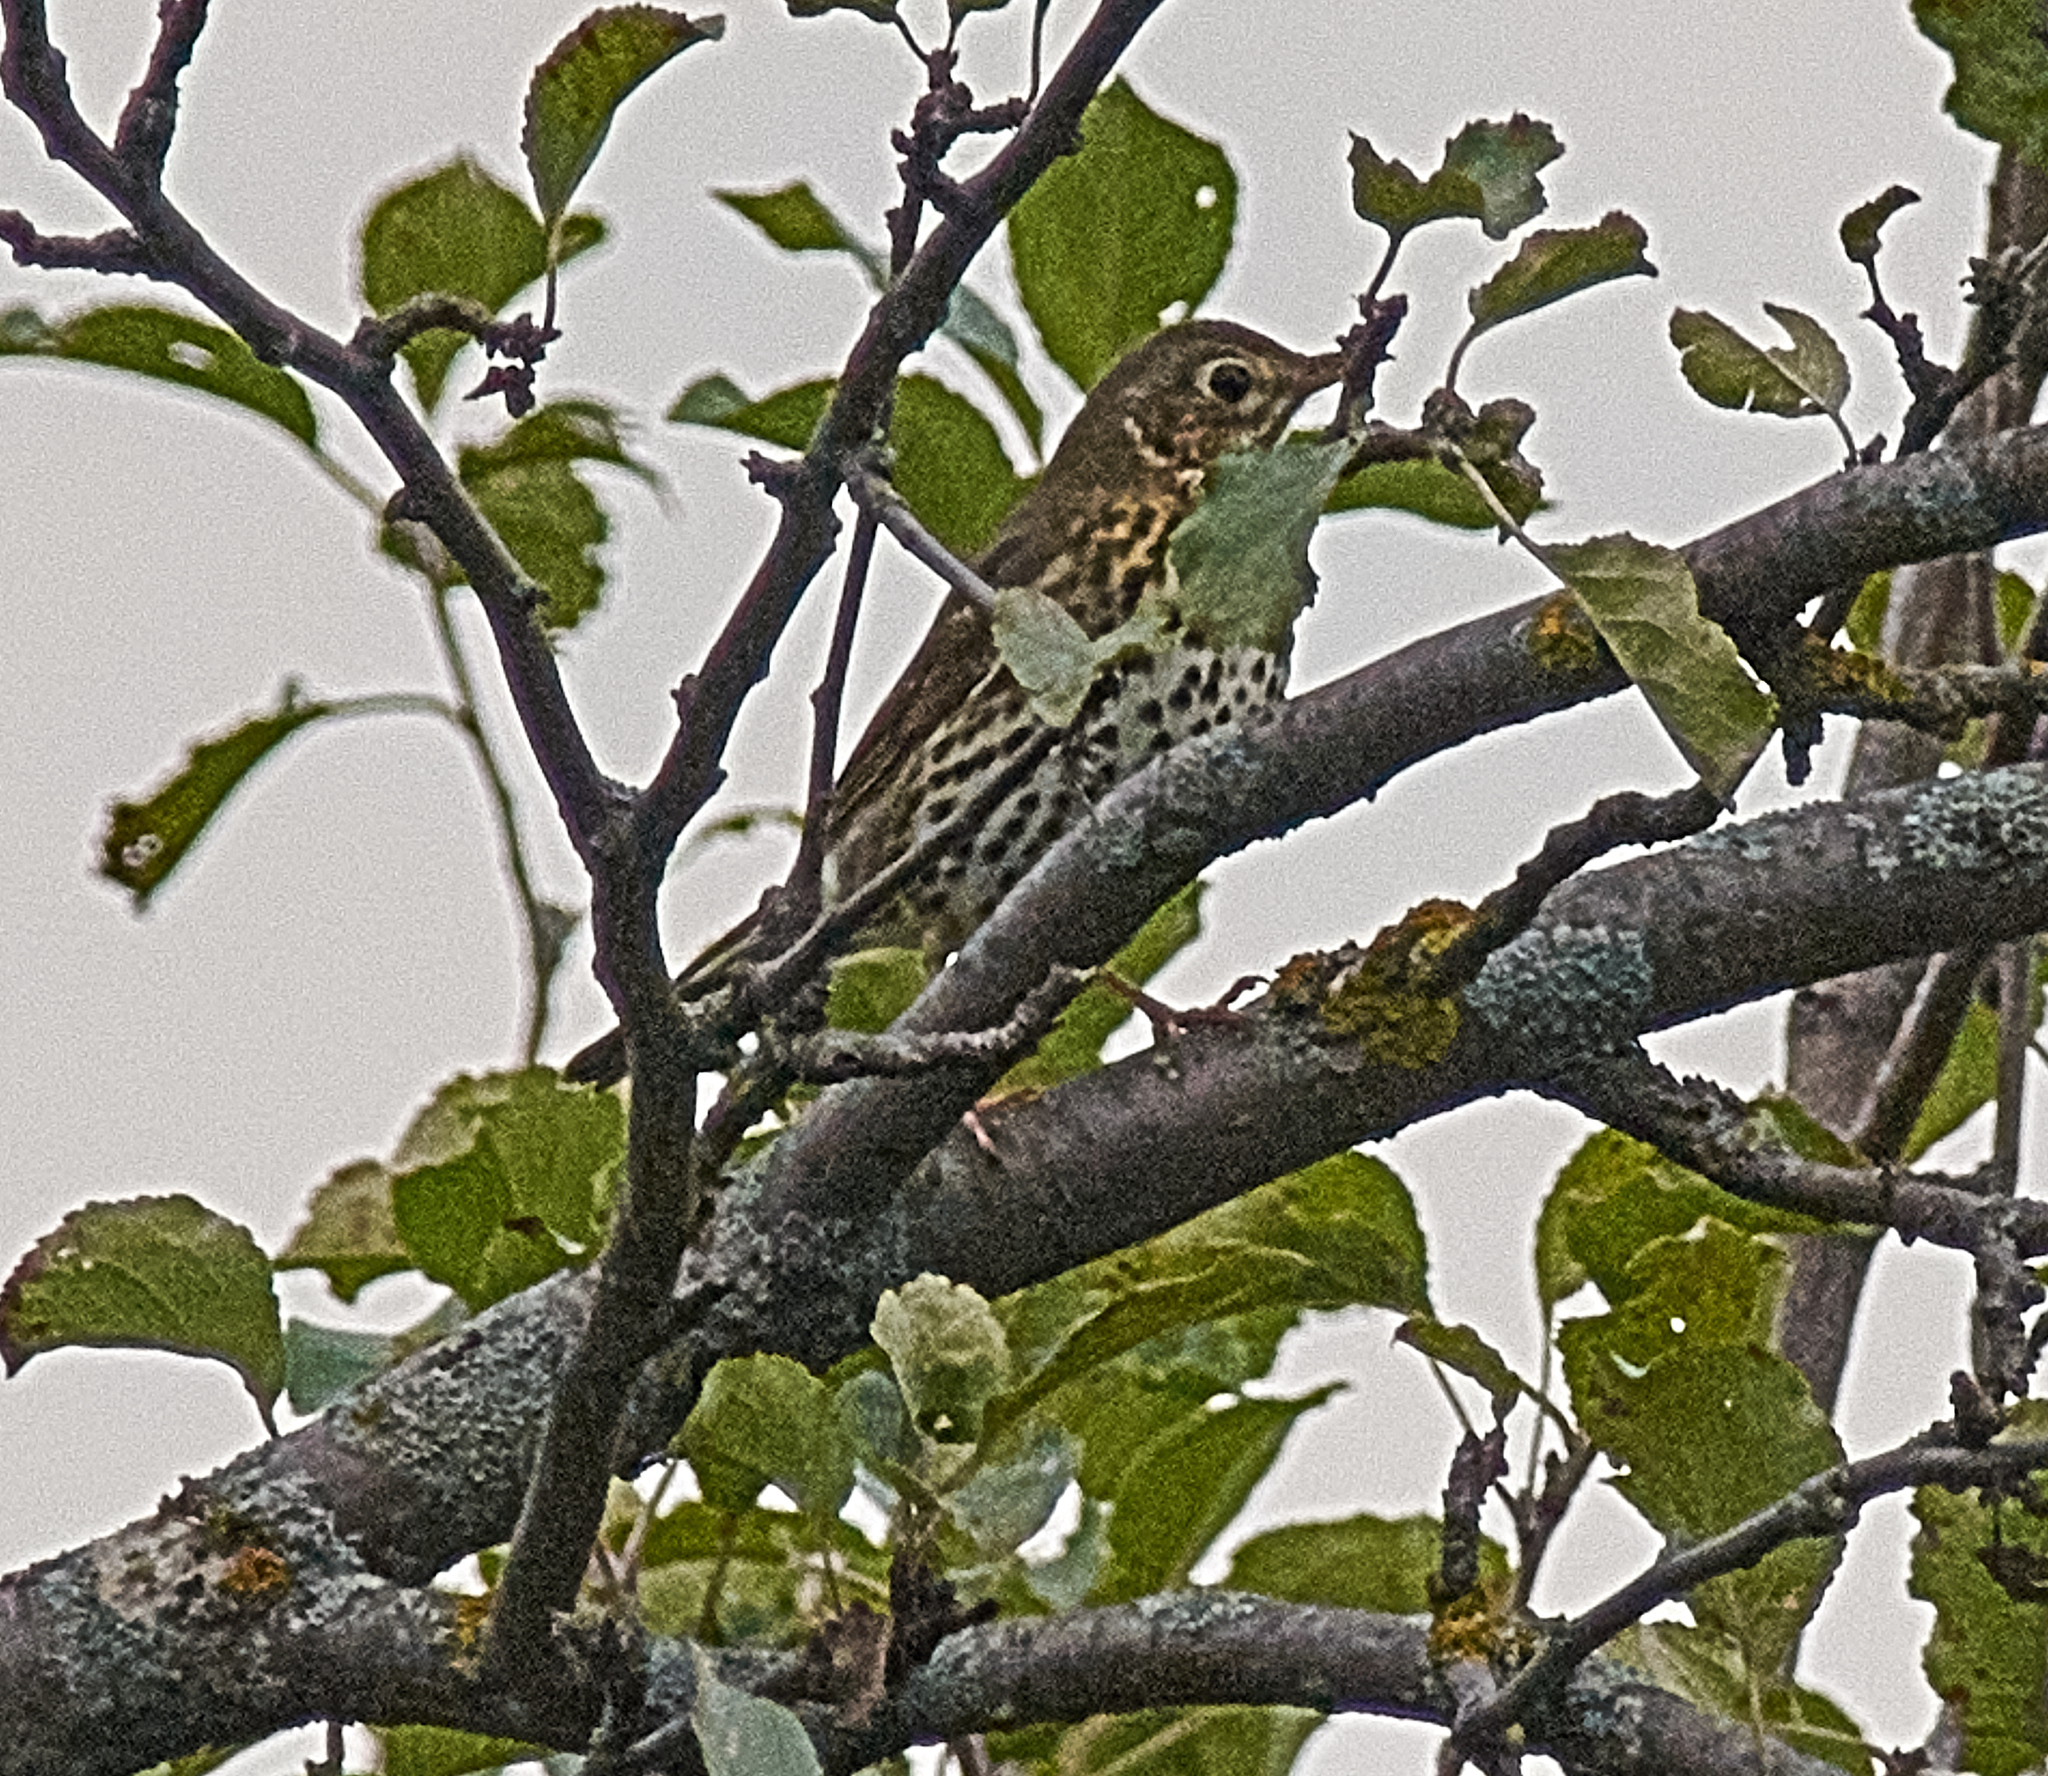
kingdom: Animalia
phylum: Chordata
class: Aves
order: Passeriformes
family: Turdidae
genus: Turdus
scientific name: Turdus philomelos
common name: Song thrush
